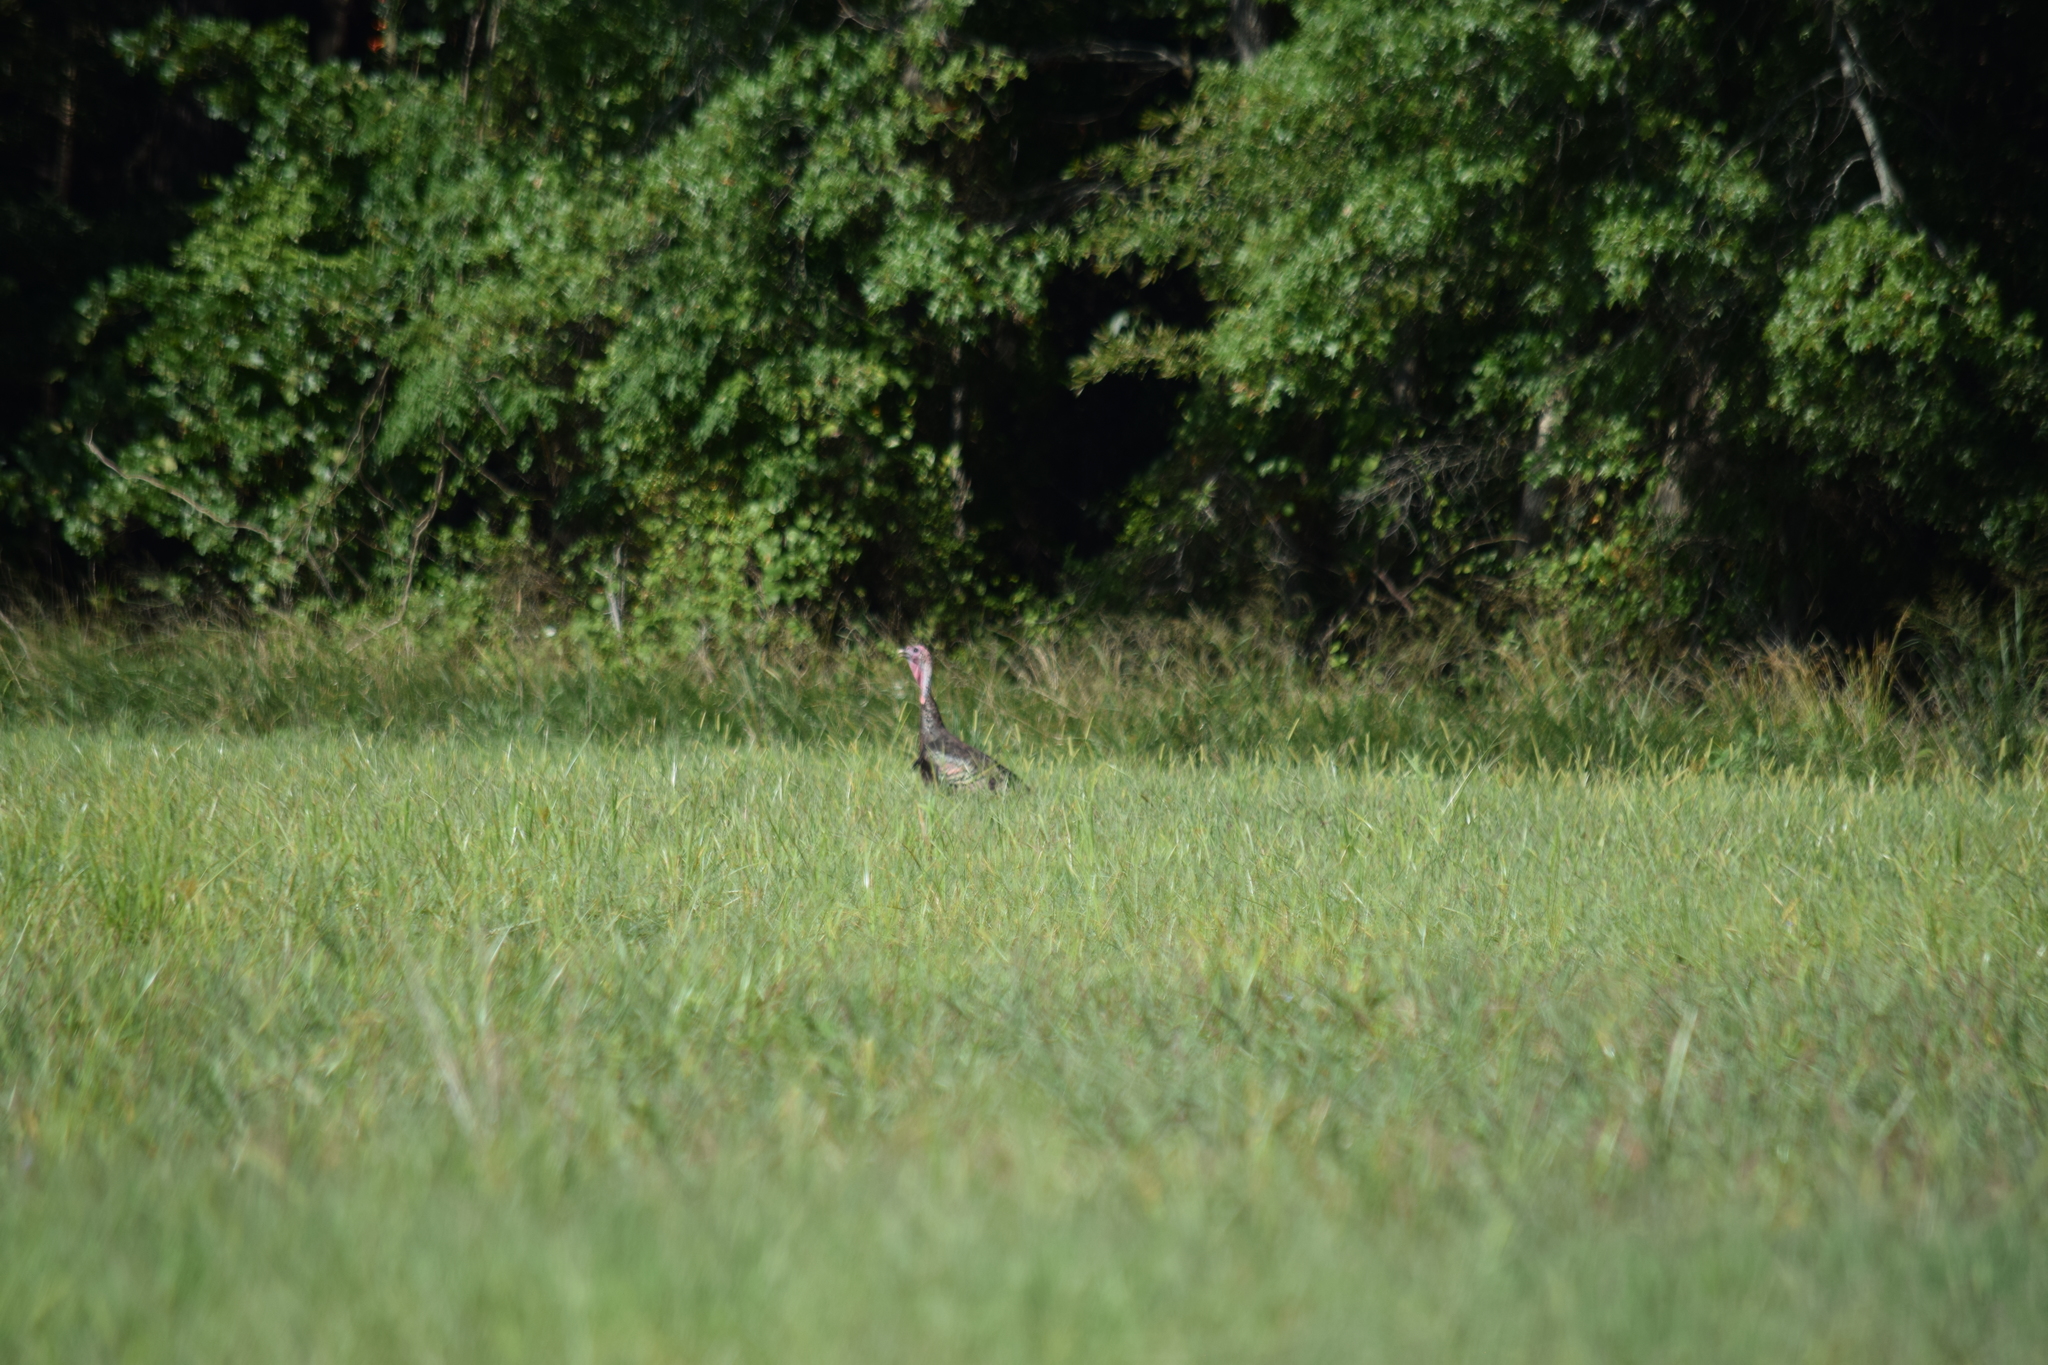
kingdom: Animalia
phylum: Chordata
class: Aves
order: Galliformes
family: Phasianidae
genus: Meleagris
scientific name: Meleagris gallopavo
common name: Wild turkey
